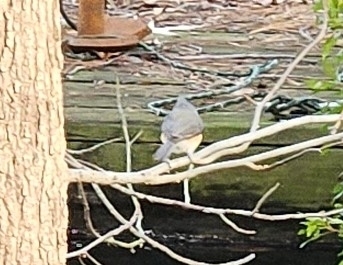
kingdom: Animalia
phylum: Chordata
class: Aves
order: Passeriformes
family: Paridae
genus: Baeolophus
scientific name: Baeolophus bicolor
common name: Tufted titmouse
